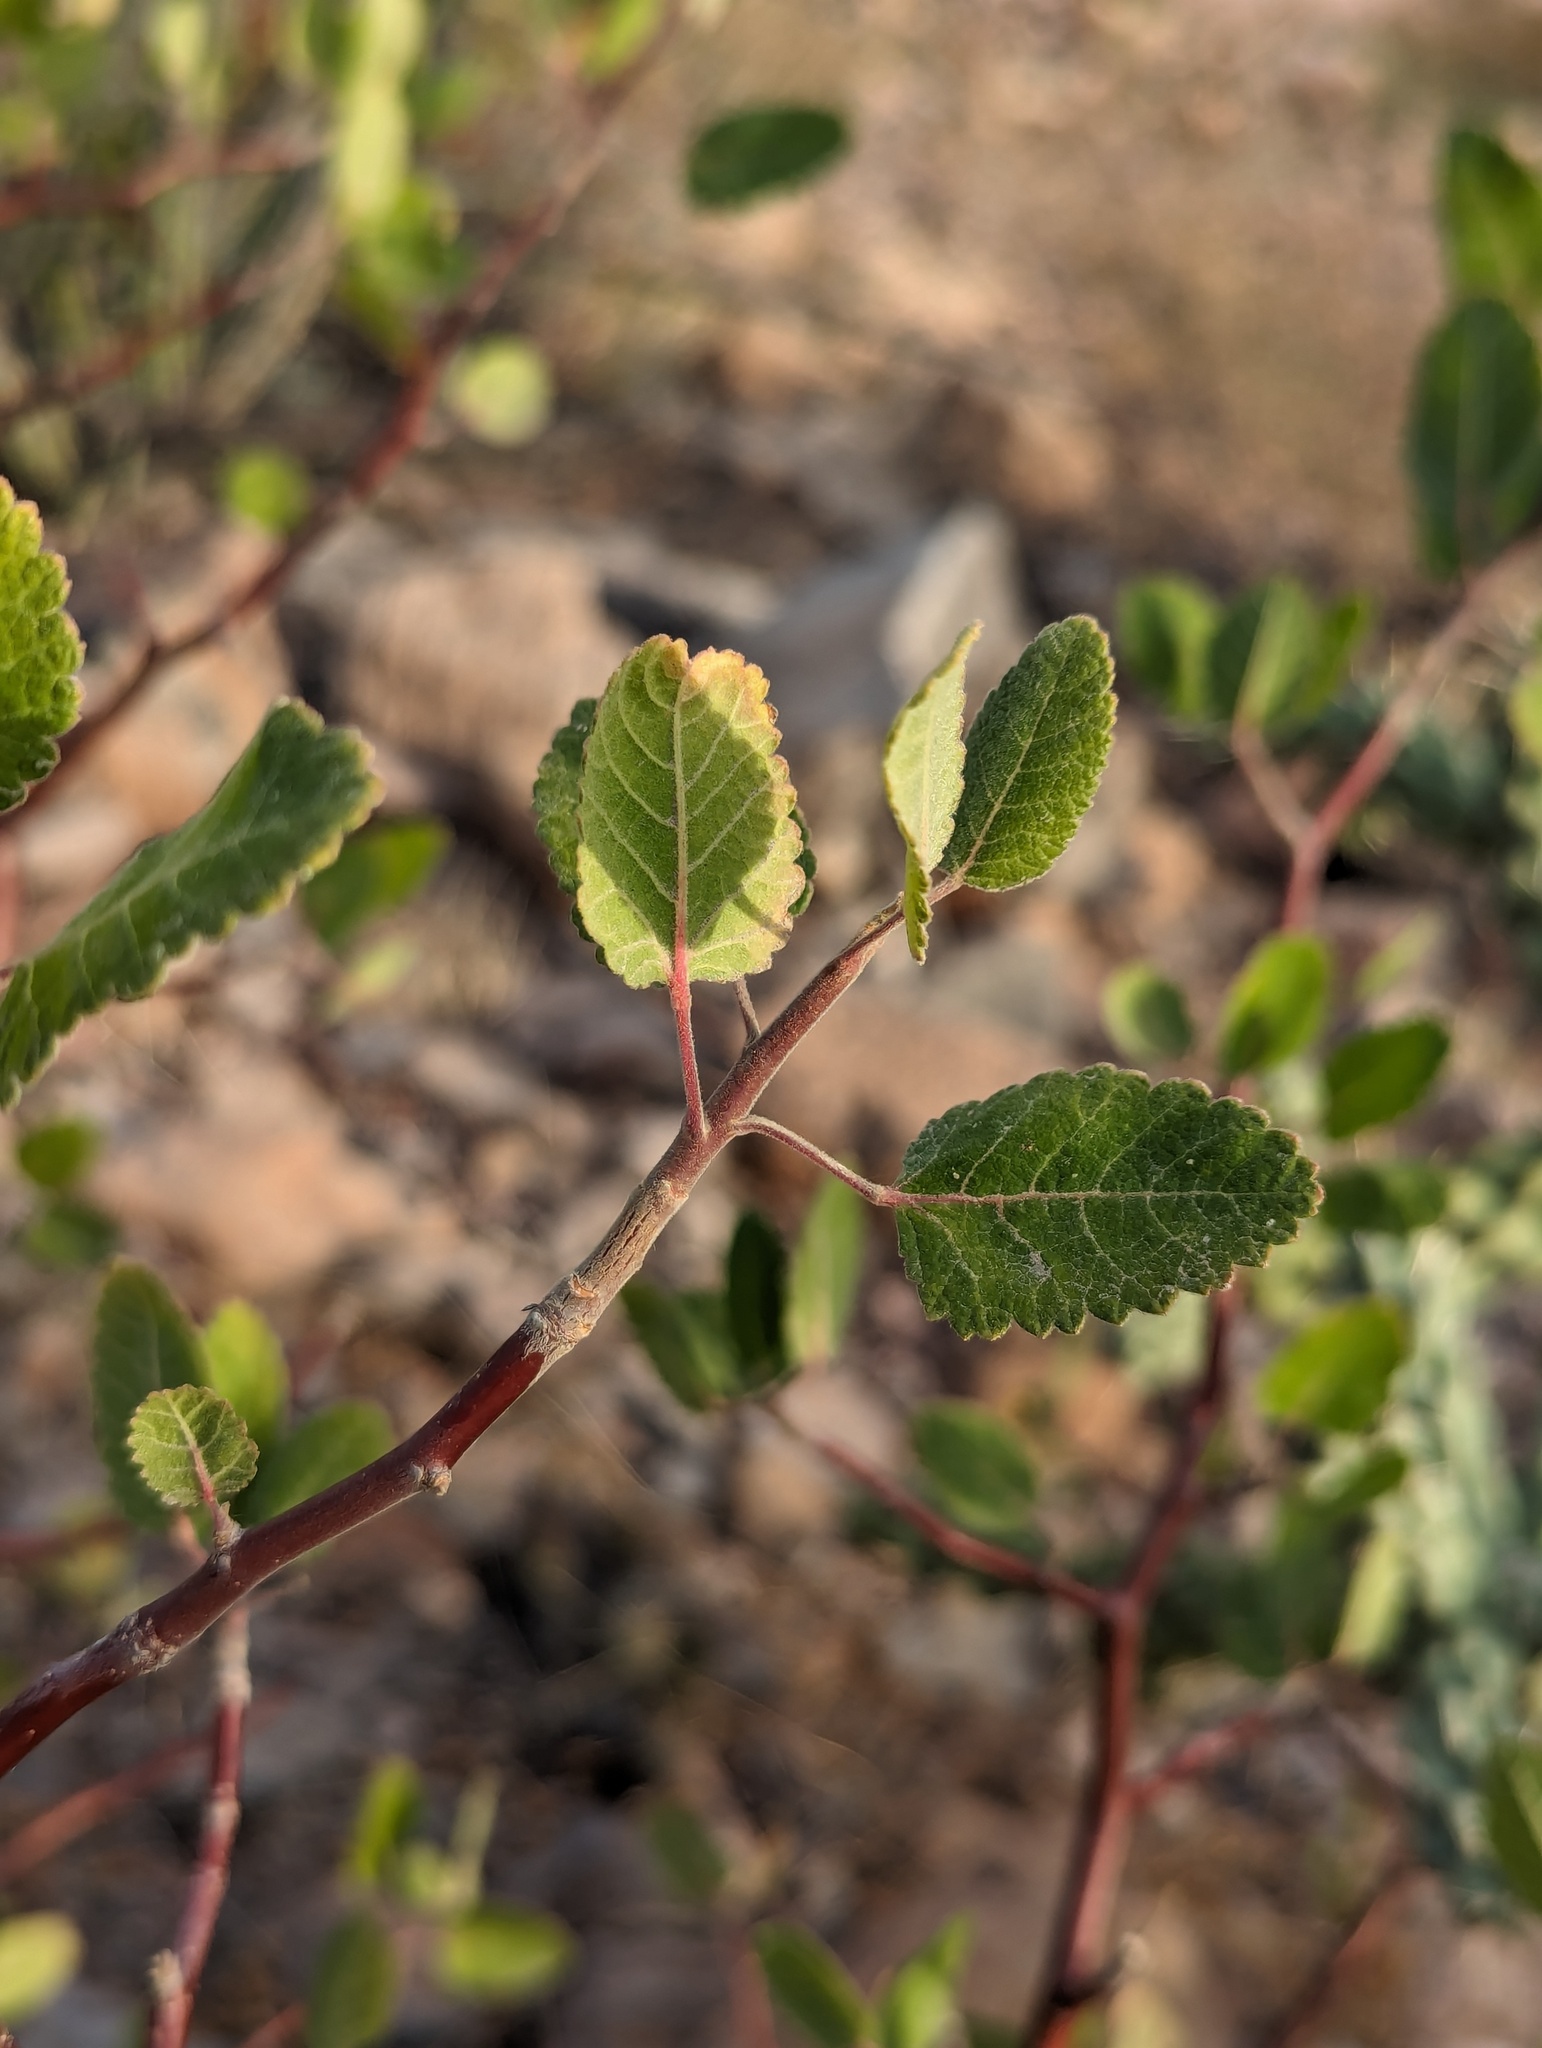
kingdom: Plantae
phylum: Tracheophyta
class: Magnoliopsida
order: Sapindales
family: Burseraceae
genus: Bursera
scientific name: Bursera hindsiana
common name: Red elephant tree
